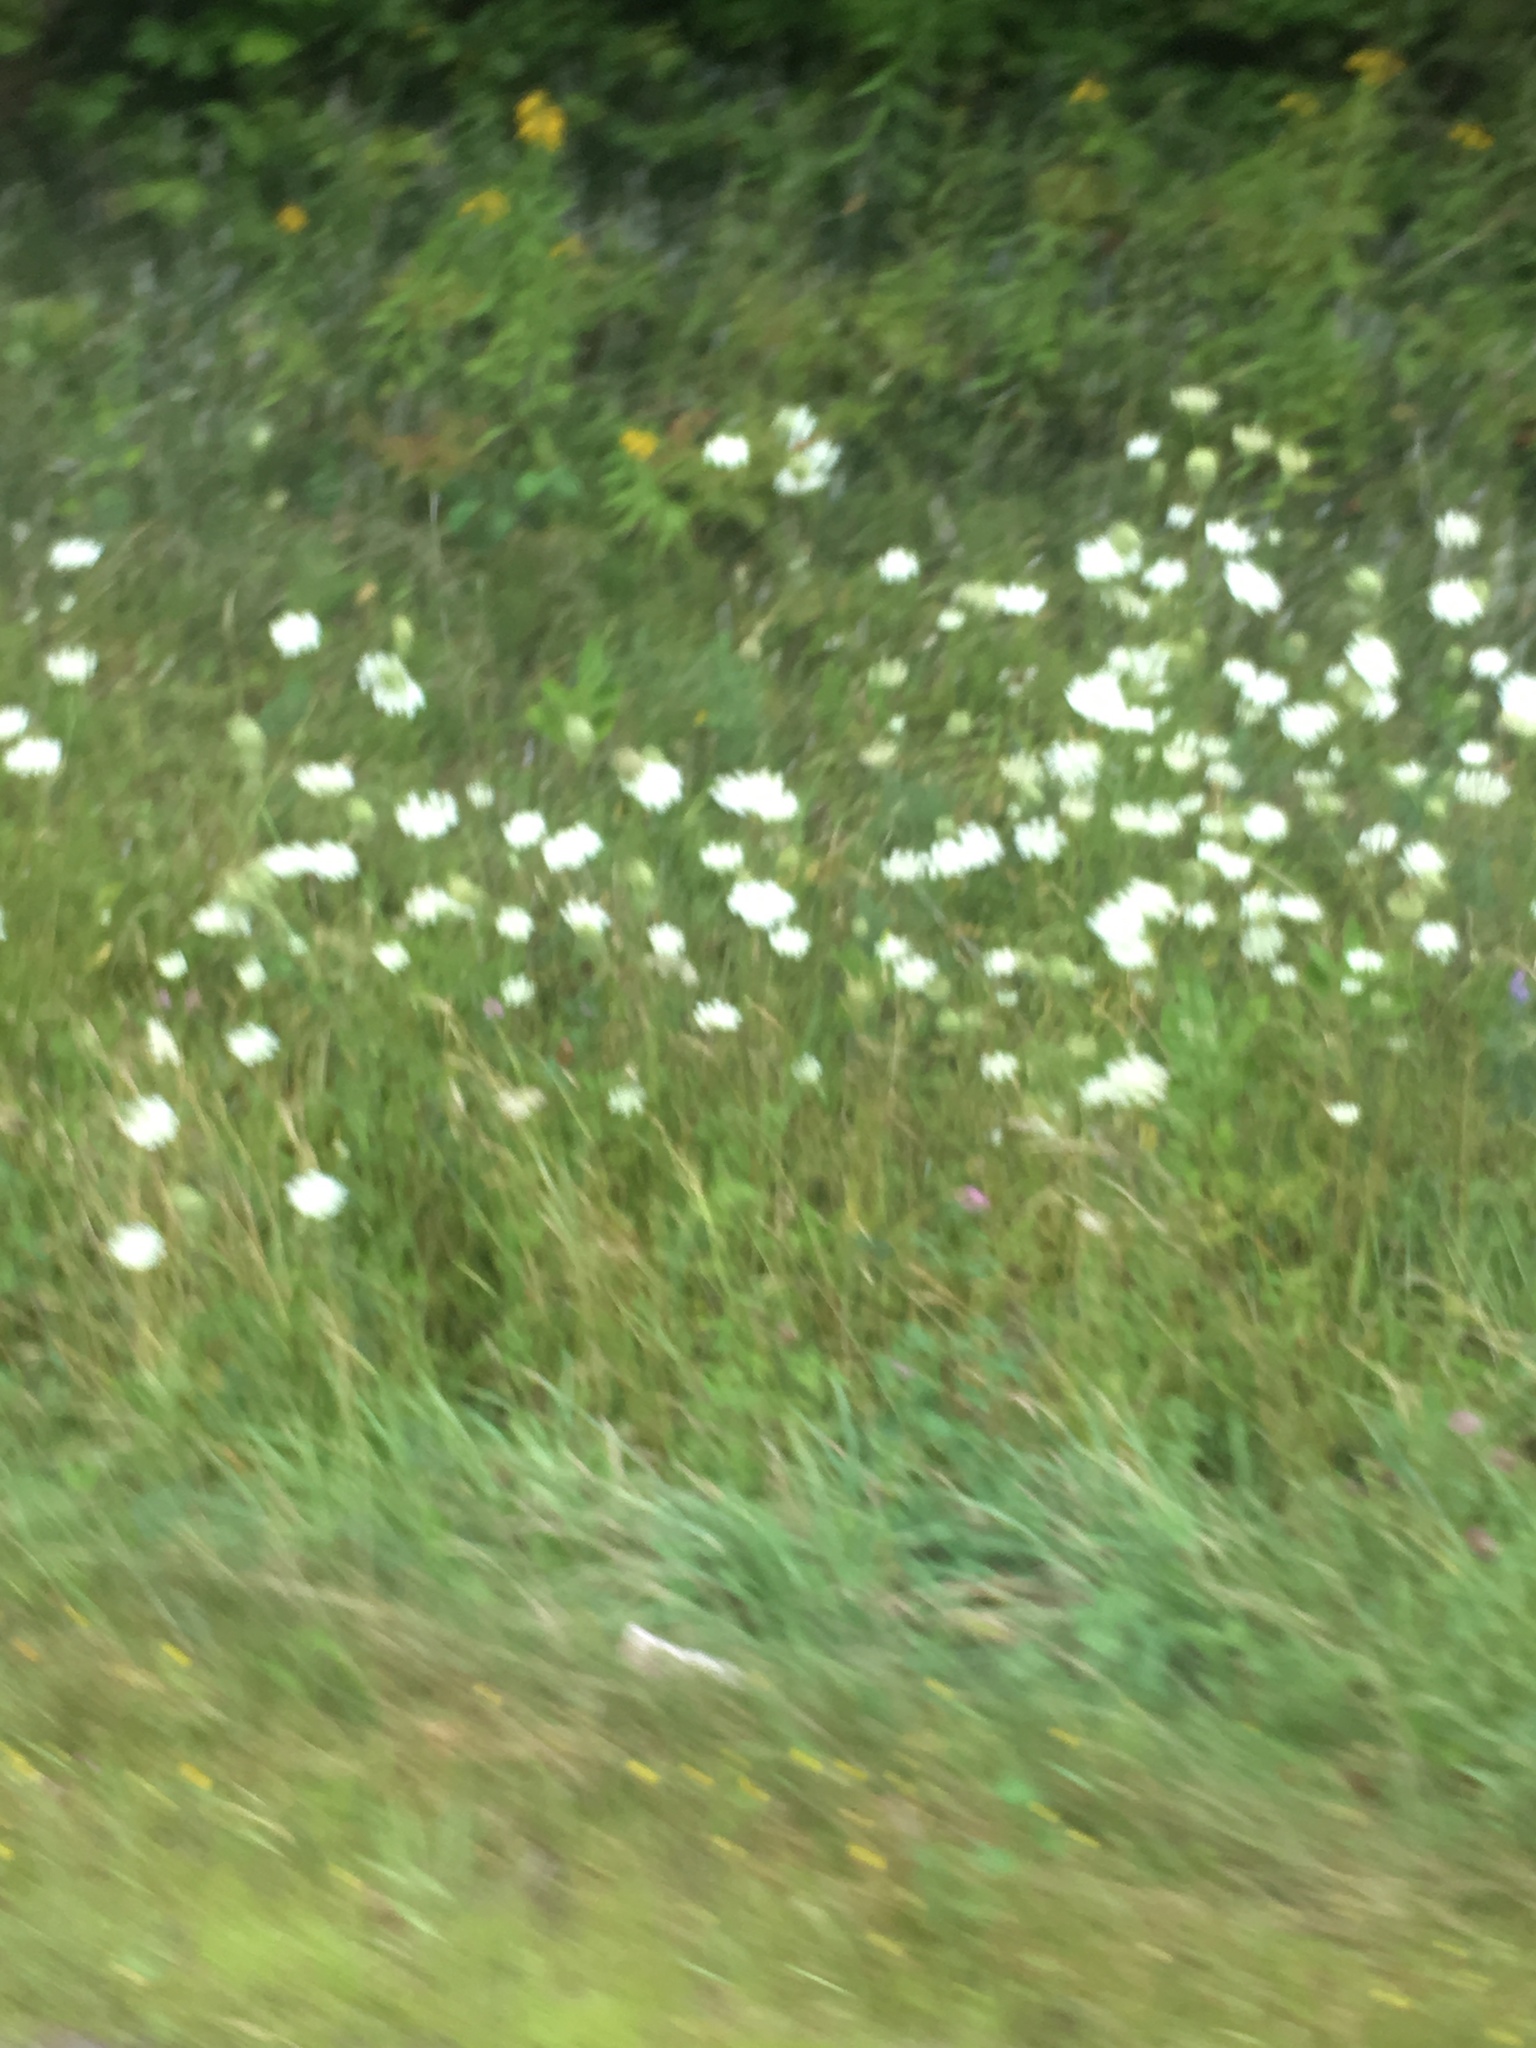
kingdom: Plantae
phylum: Tracheophyta
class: Magnoliopsida
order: Apiales
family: Apiaceae
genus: Daucus
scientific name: Daucus carota
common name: Wild carrot
